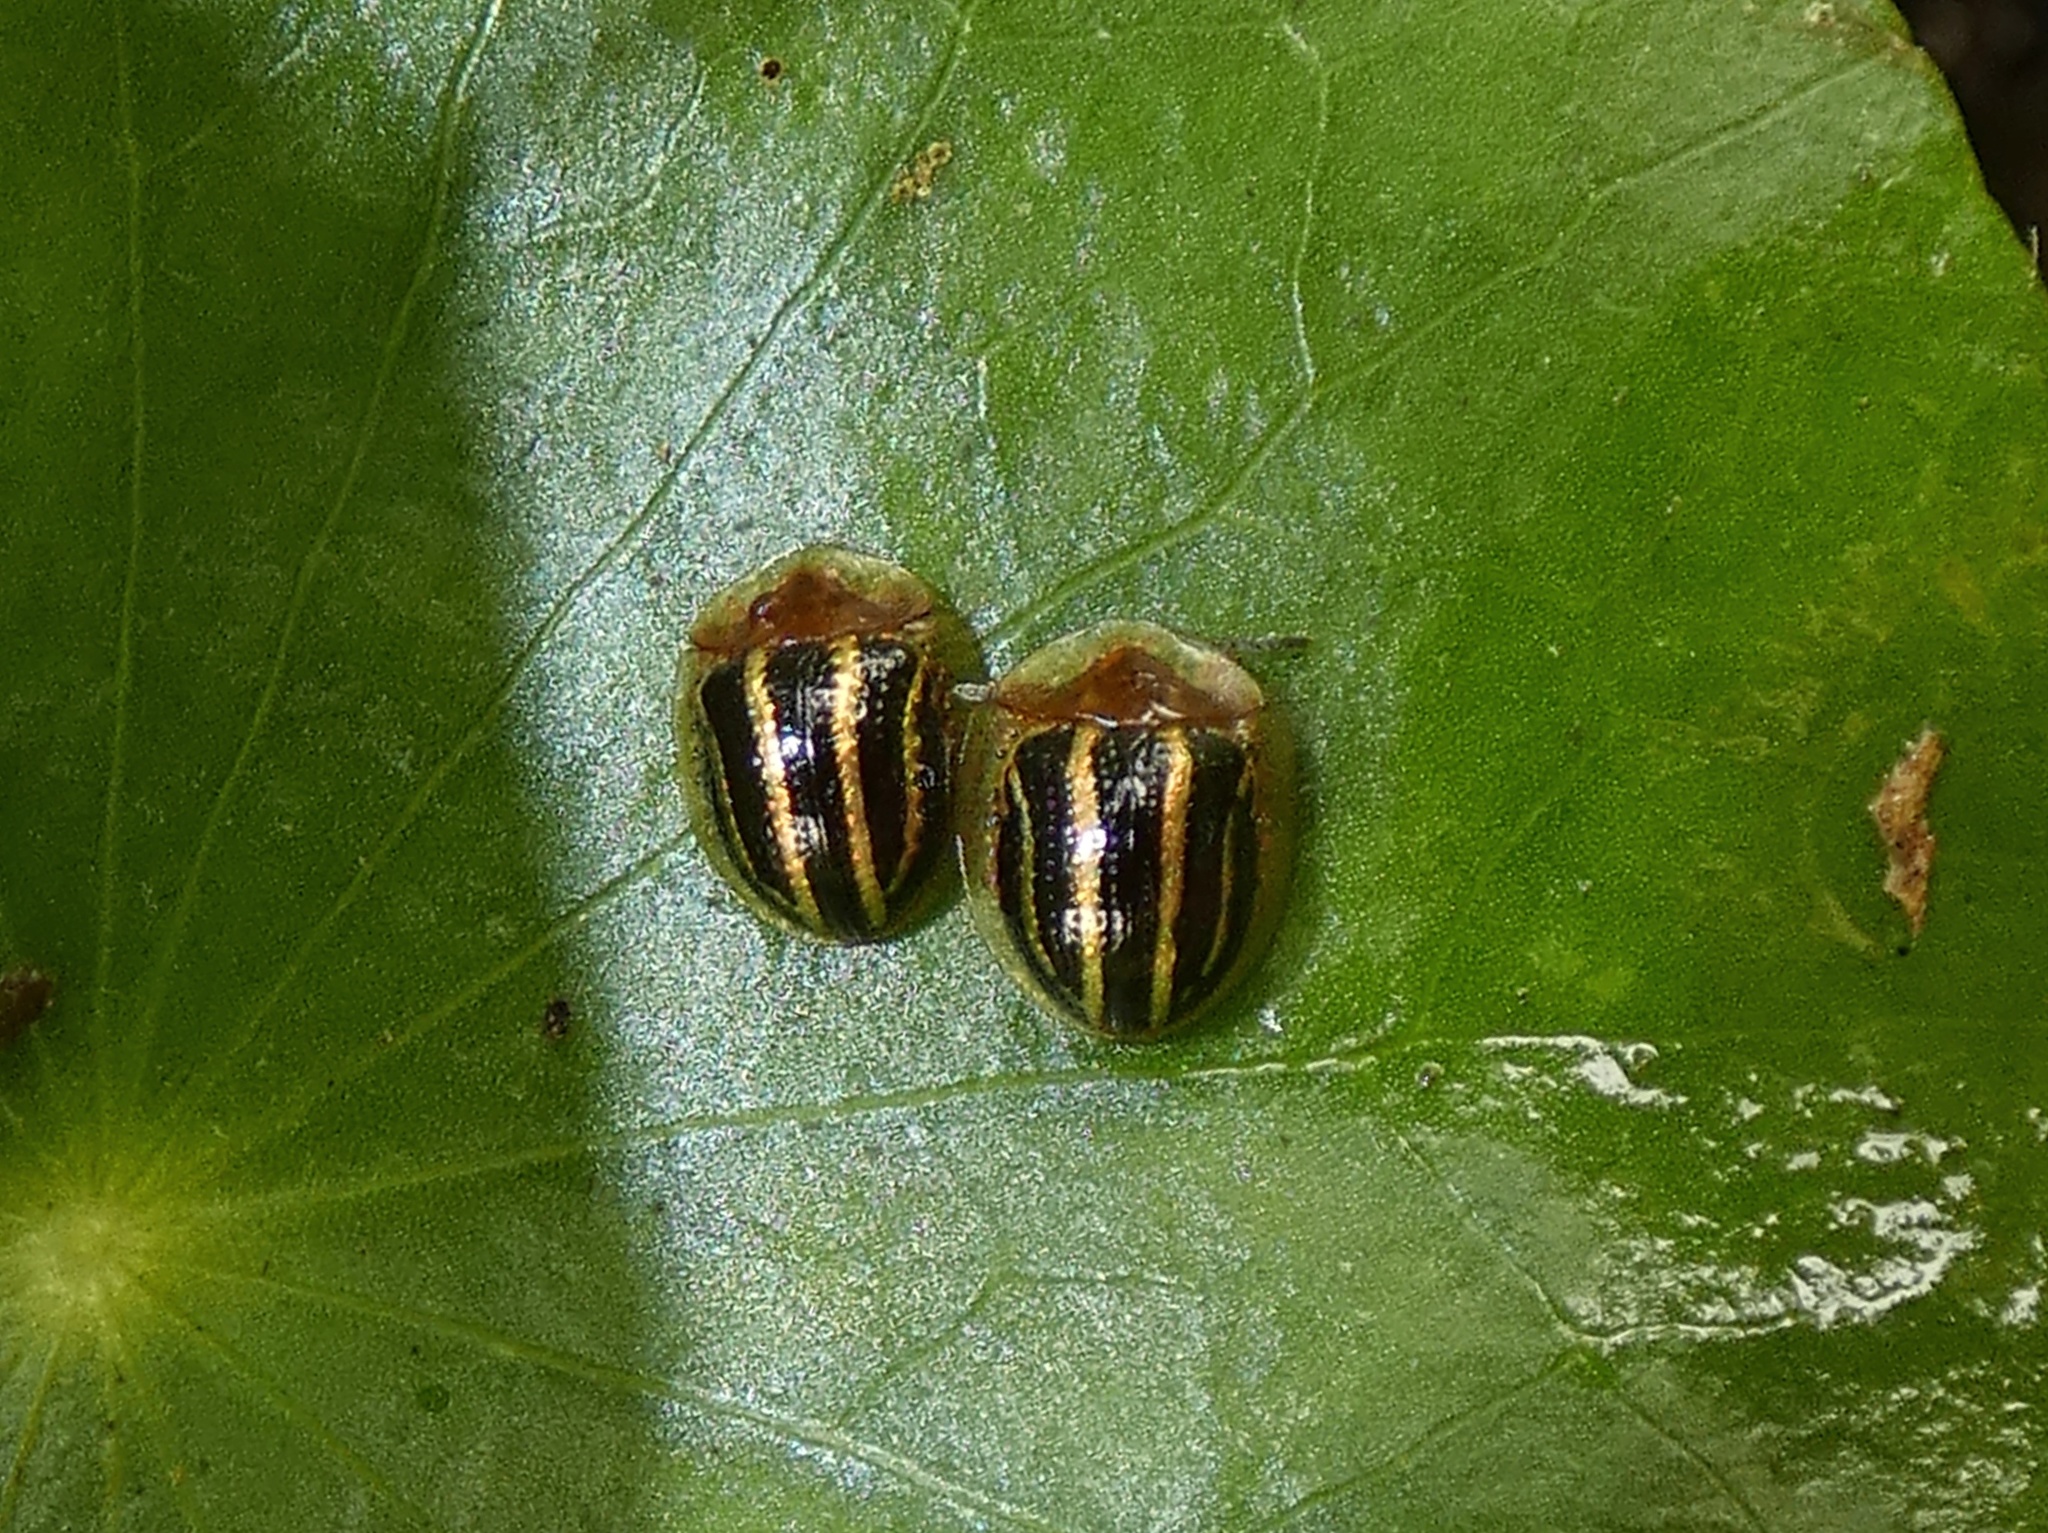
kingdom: Animalia
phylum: Arthropoda
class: Insecta
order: Coleoptera
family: Chrysomelidae
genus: Agroiconota
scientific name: Agroiconota propinqua
